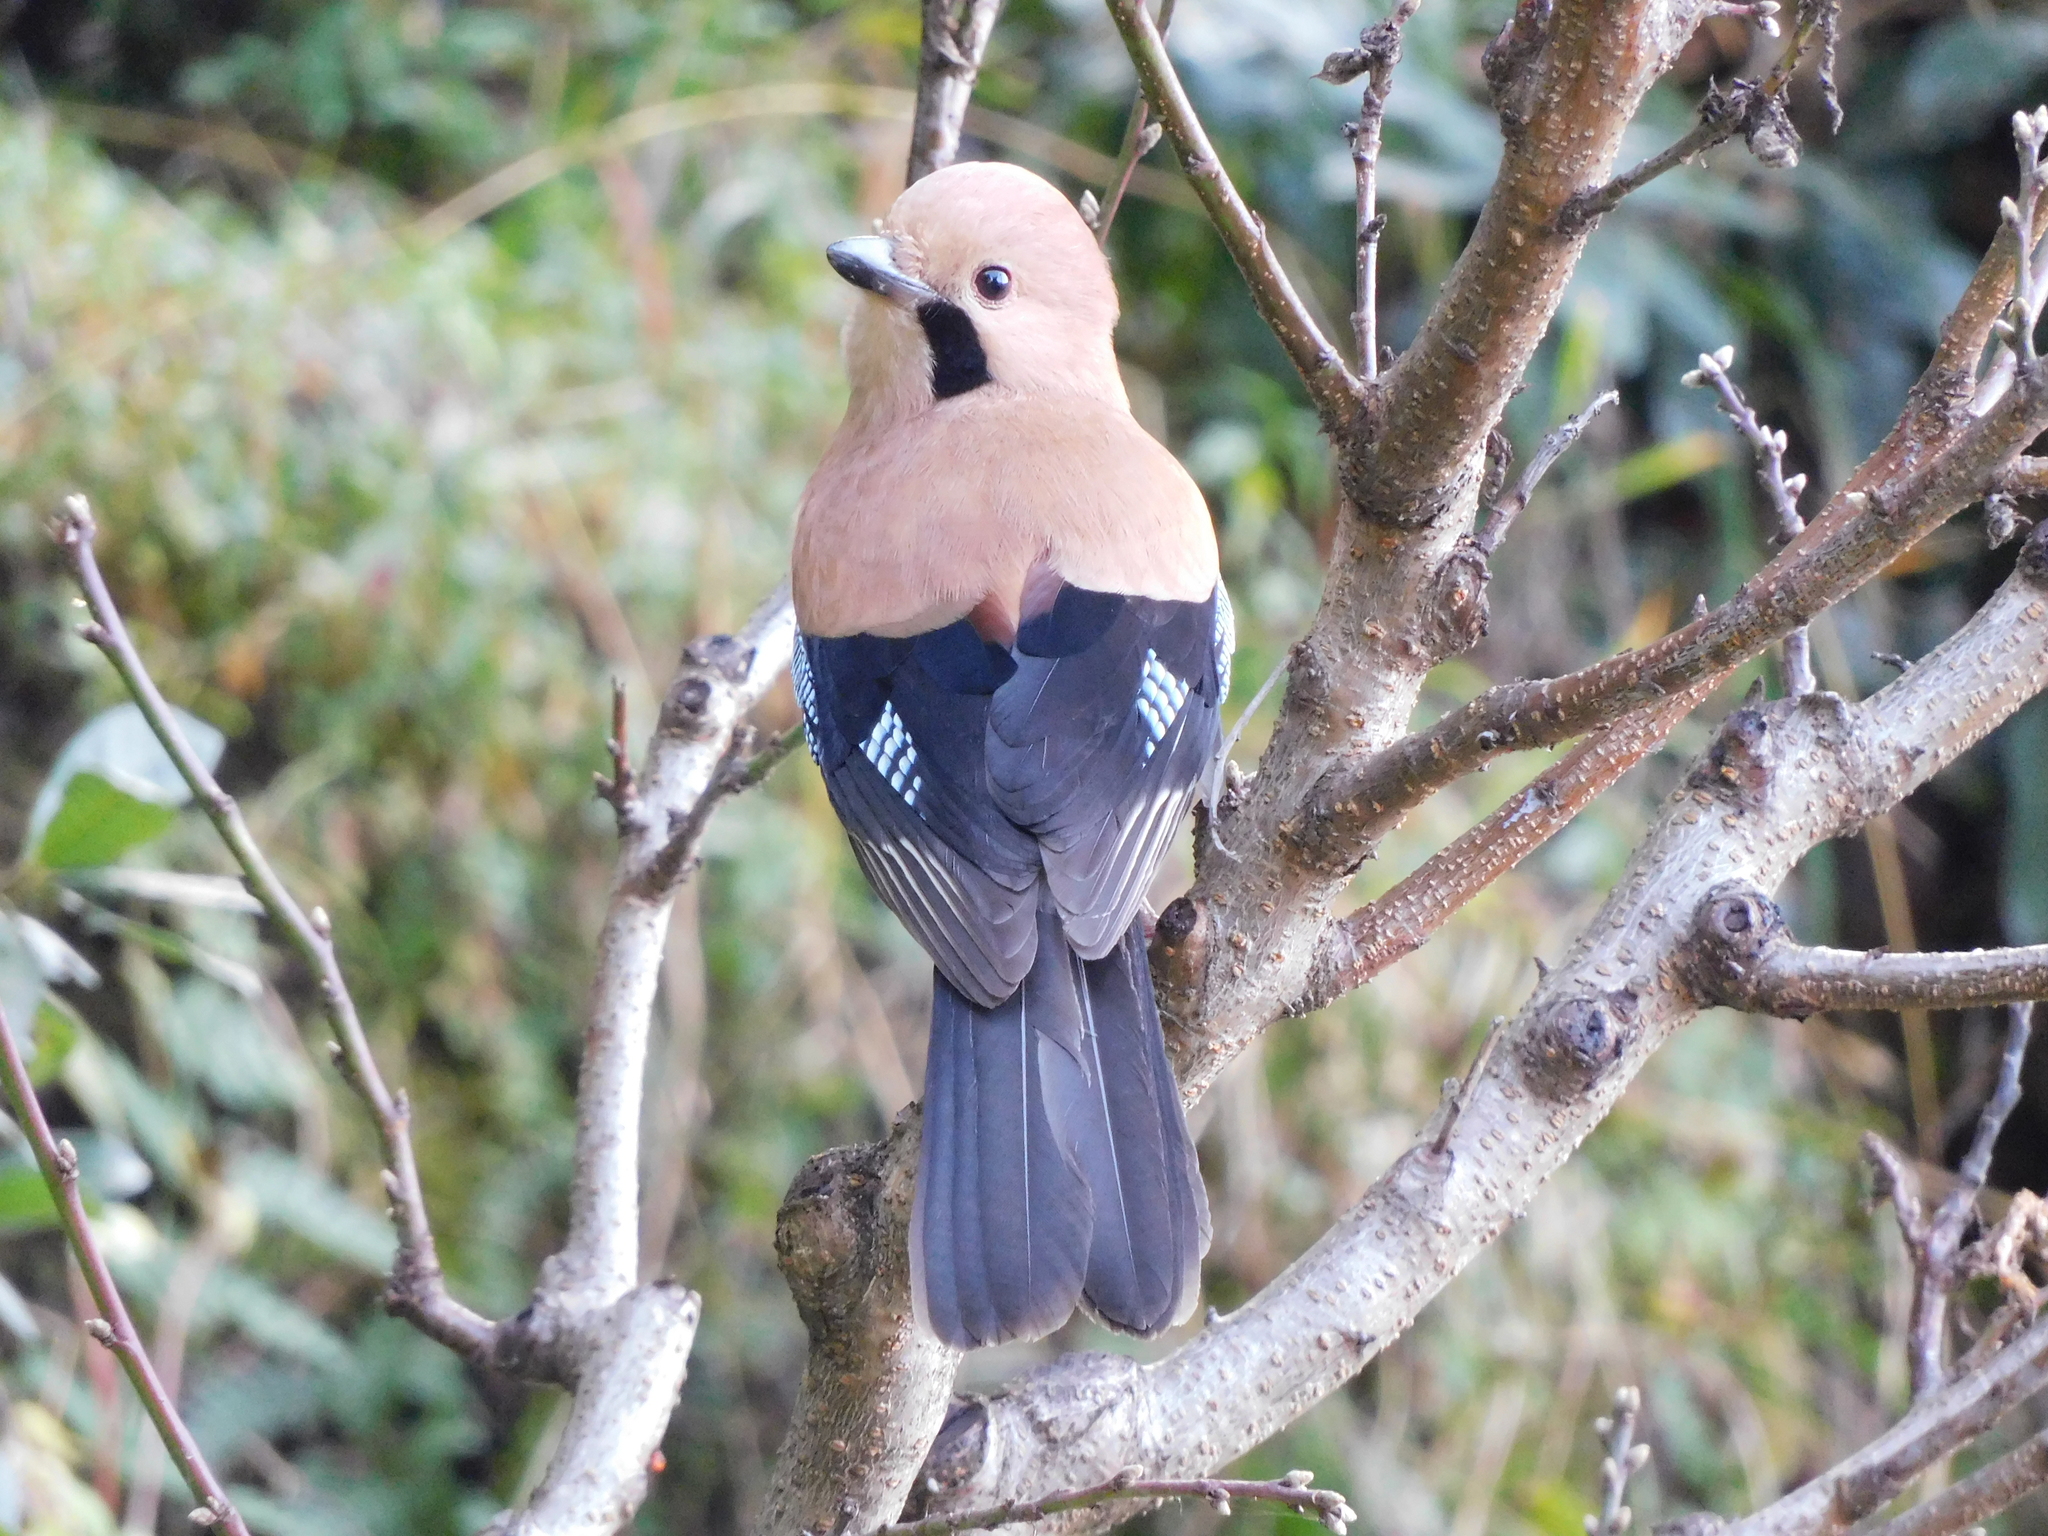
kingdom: Animalia
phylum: Chordata
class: Aves
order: Passeriformes
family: Corvidae
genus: Garrulus
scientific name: Garrulus glandarius
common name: Eurasian jay
